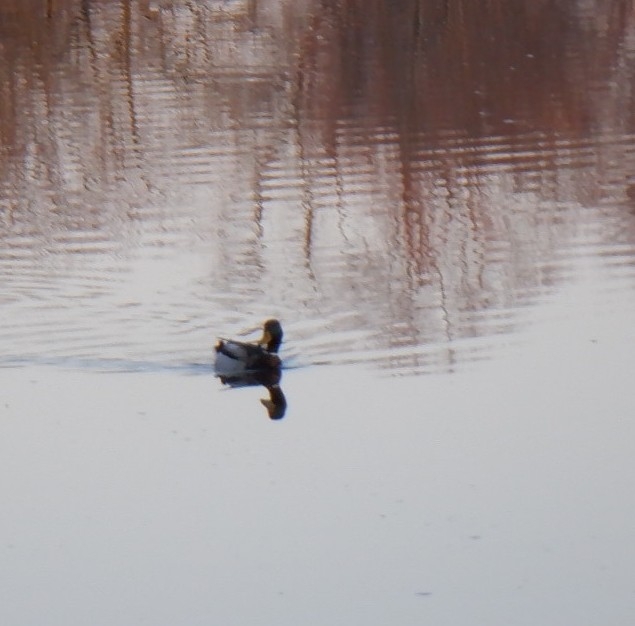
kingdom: Animalia
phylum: Chordata
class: Aves
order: Anseriformes
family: Anatidae
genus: Anas
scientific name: Anas platyrhynchos
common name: Mallard
